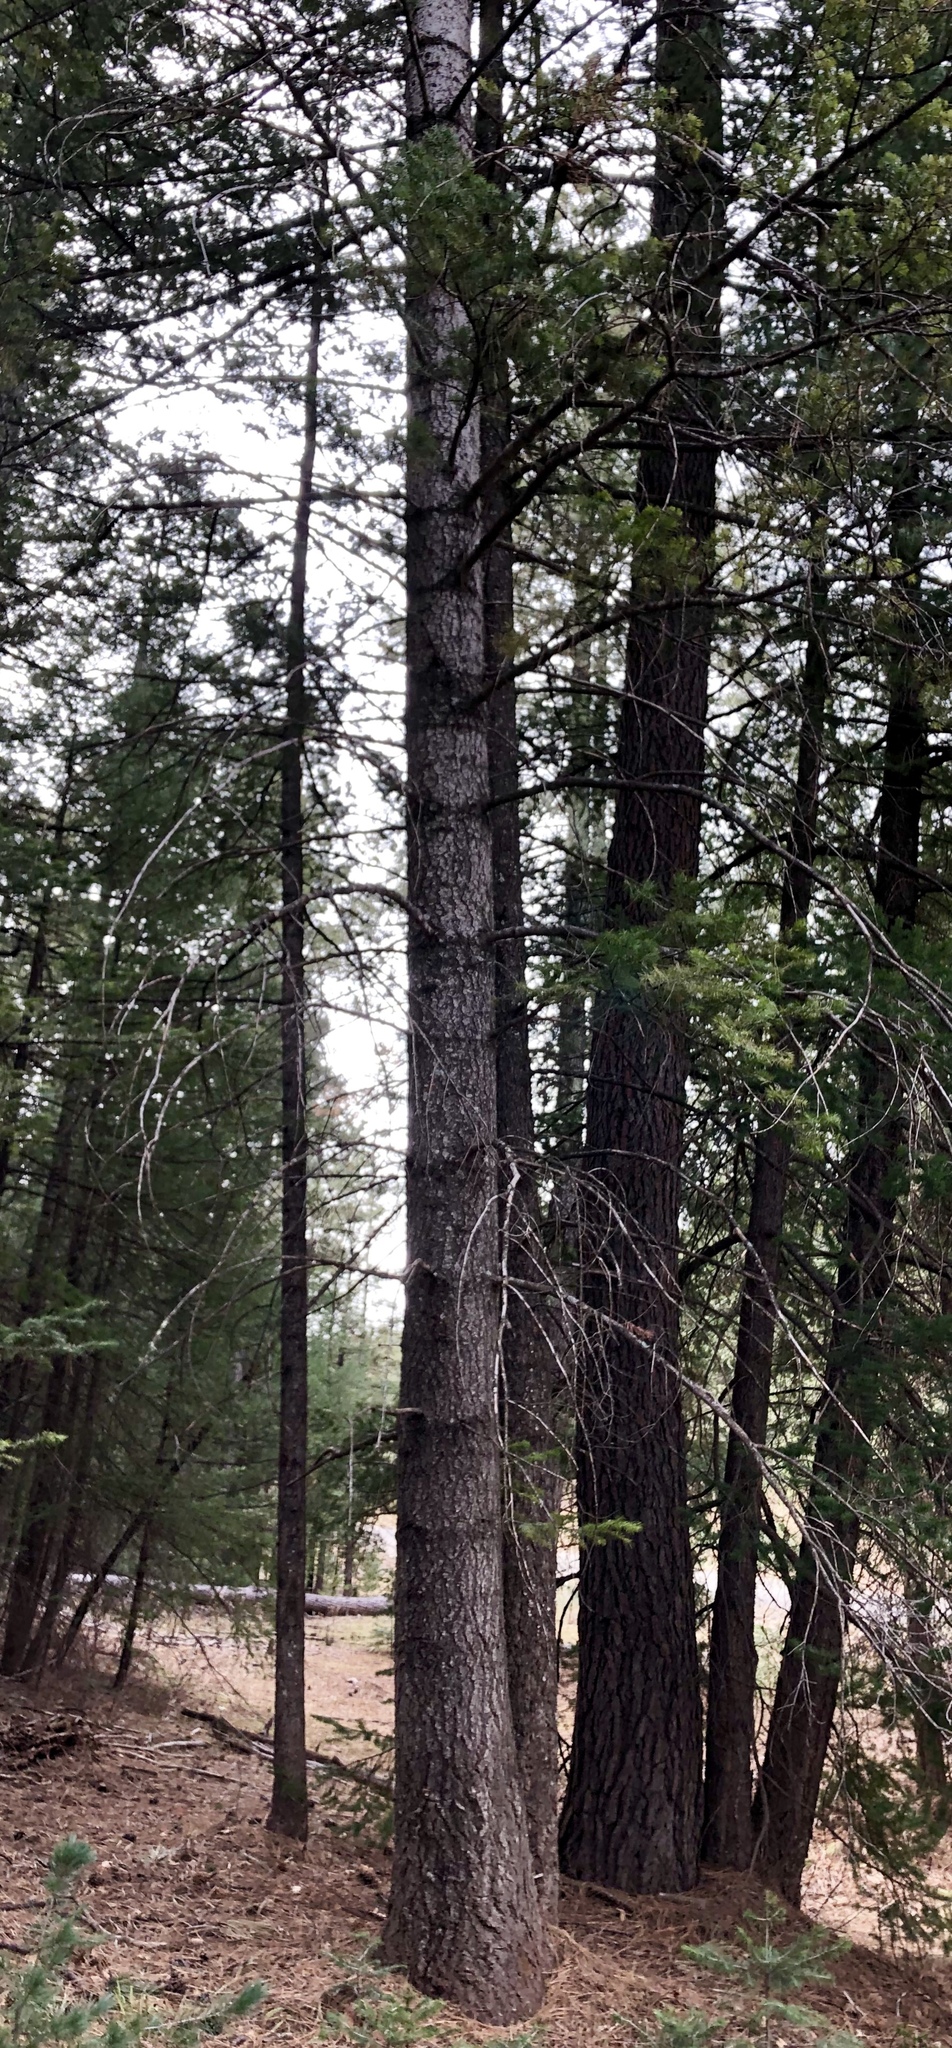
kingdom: Plantae
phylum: Tracheophyta
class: Pinopsida
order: Pinales
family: Pinaceae
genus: Abies
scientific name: Abies concolor
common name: Colorado fir
